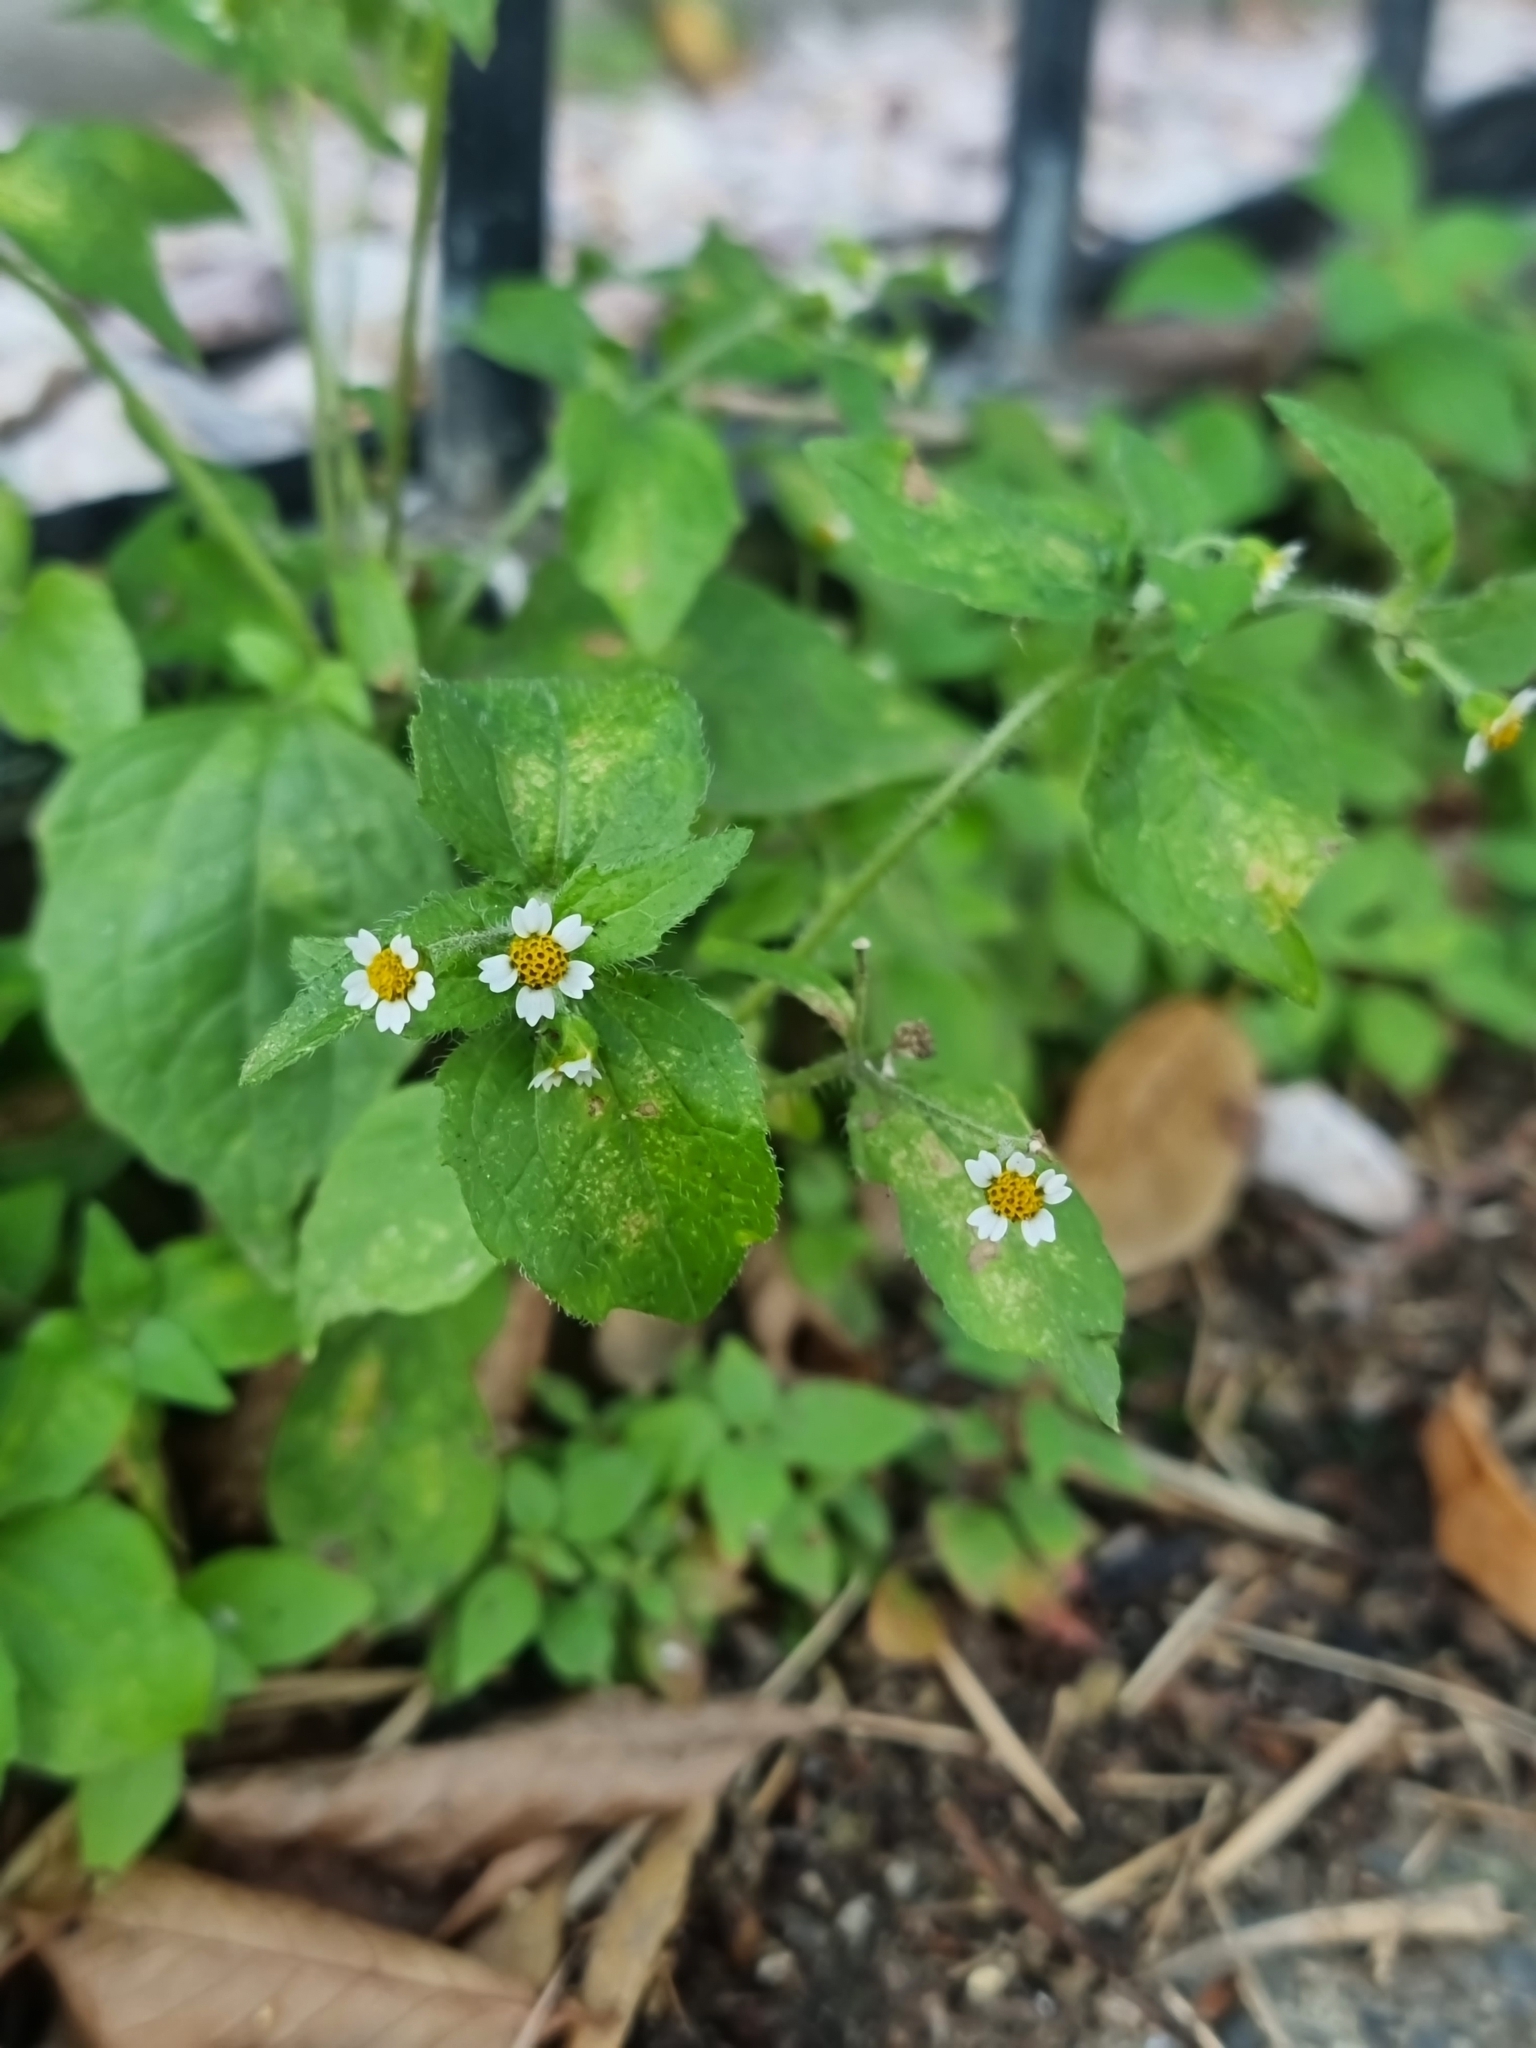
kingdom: Plantae
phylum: Tracheophyta
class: Magnoliopsida
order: Asterales
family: Asteraceae
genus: Galinsoga
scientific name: Galinsoga quadriradiata
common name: Shaggy soldier
